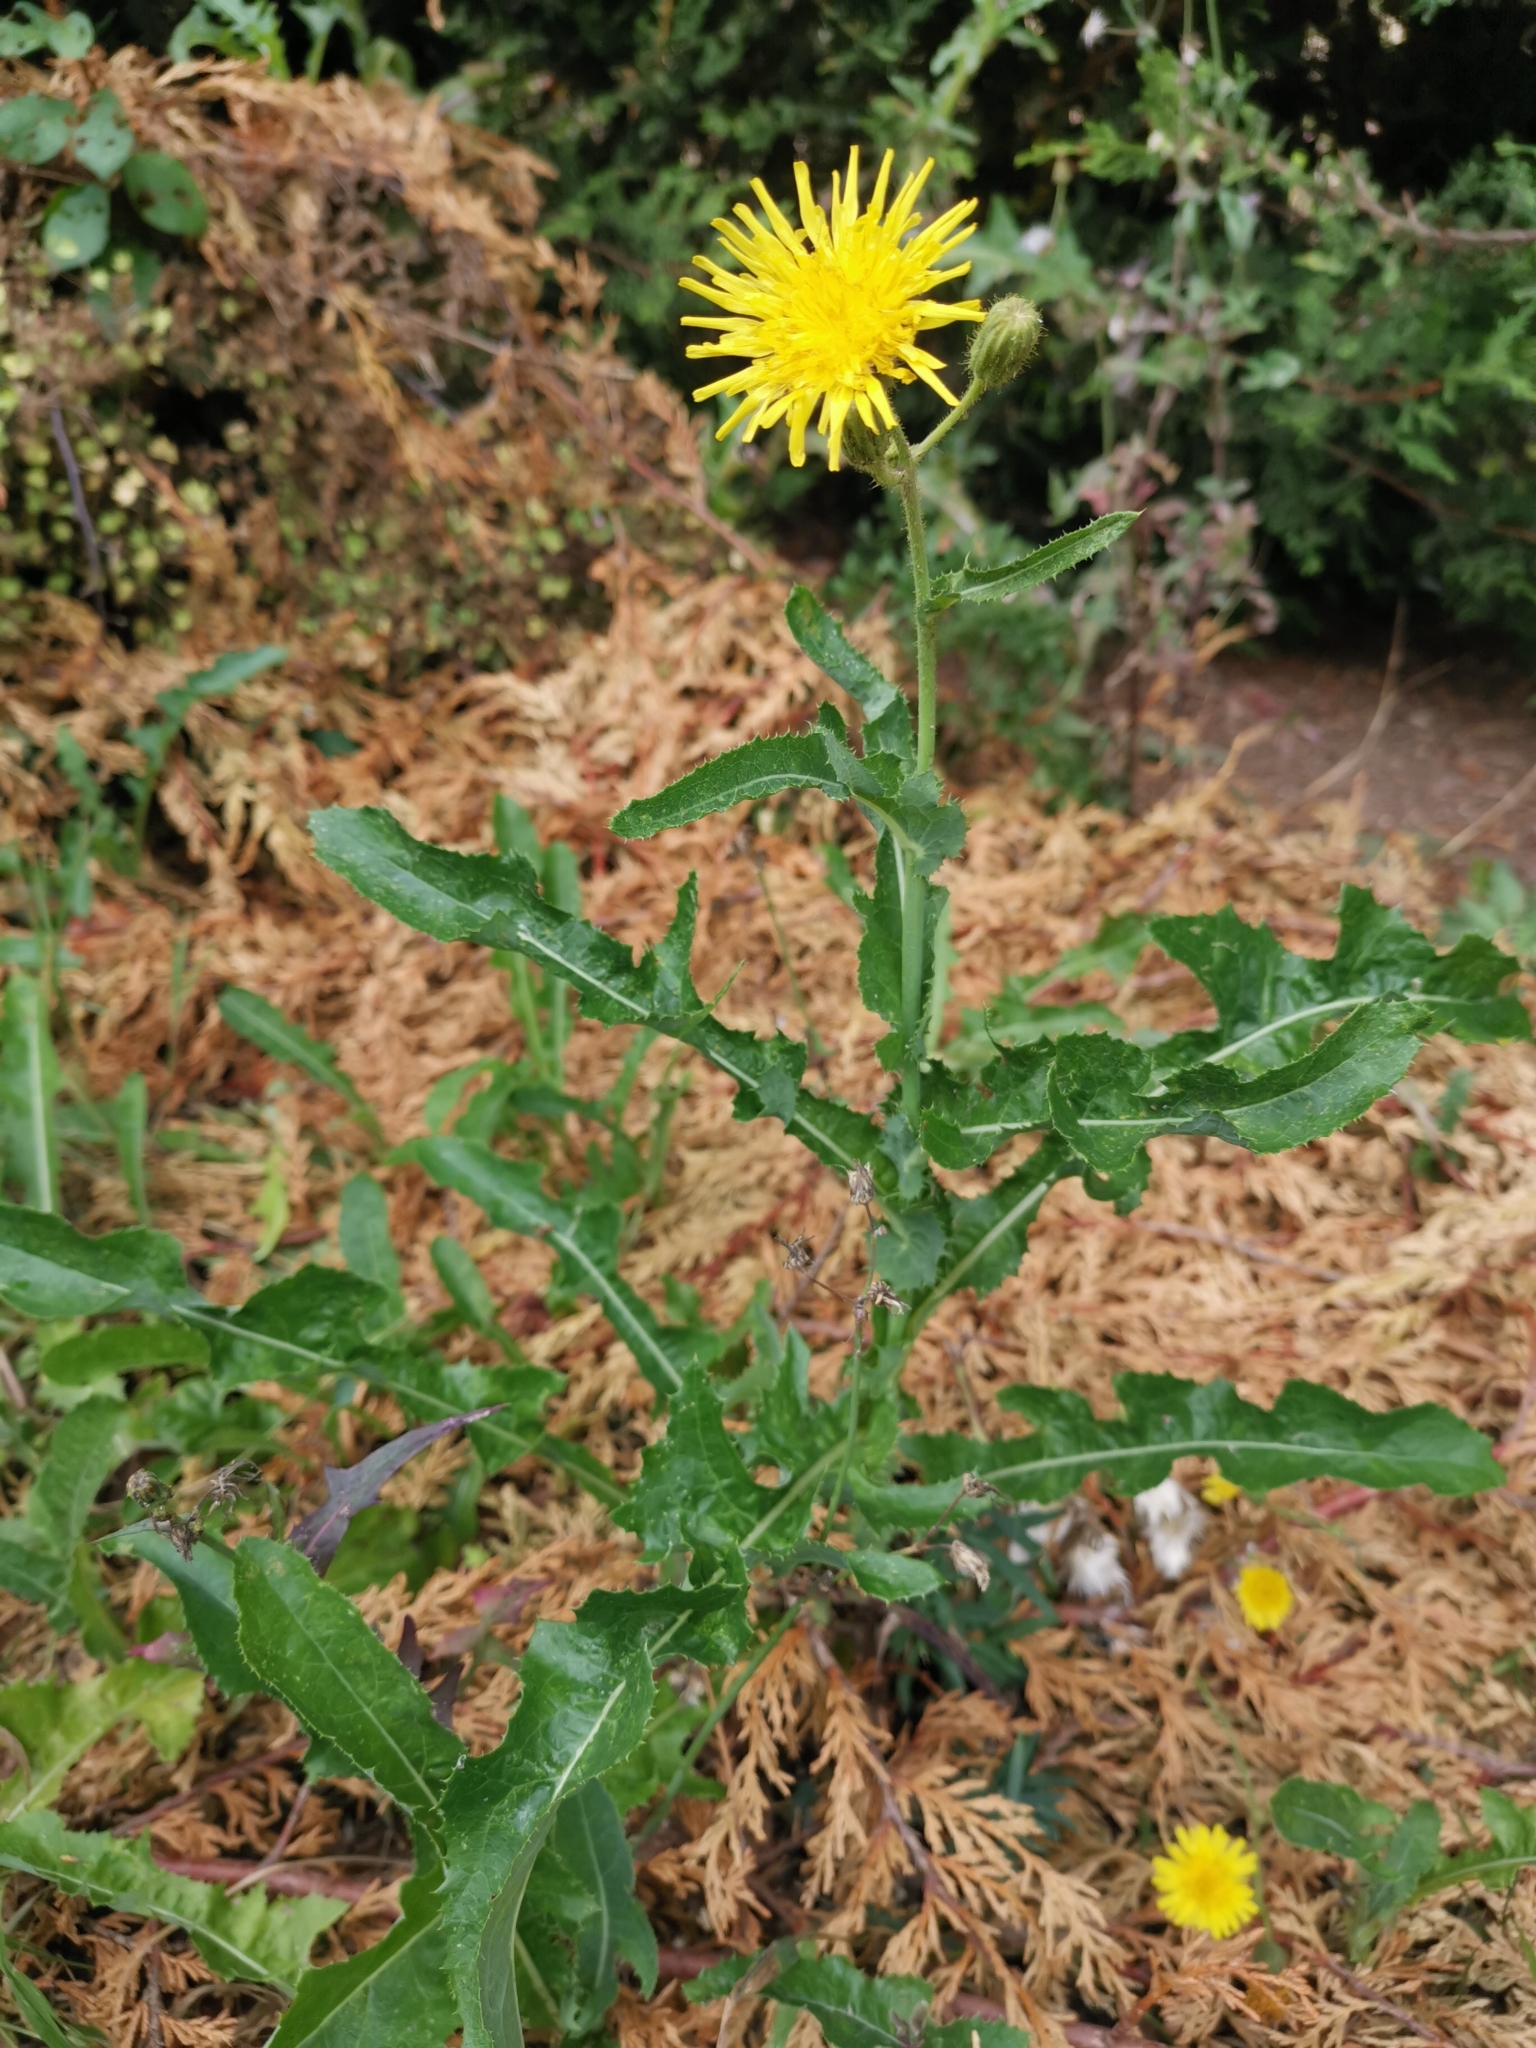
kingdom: Plantae
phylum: Tracheophyta
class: Magnoliopsida
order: Asterales
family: Asteraceae
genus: Sonchus
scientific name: Sonchus arvensis
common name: Perennial sow-thistle
